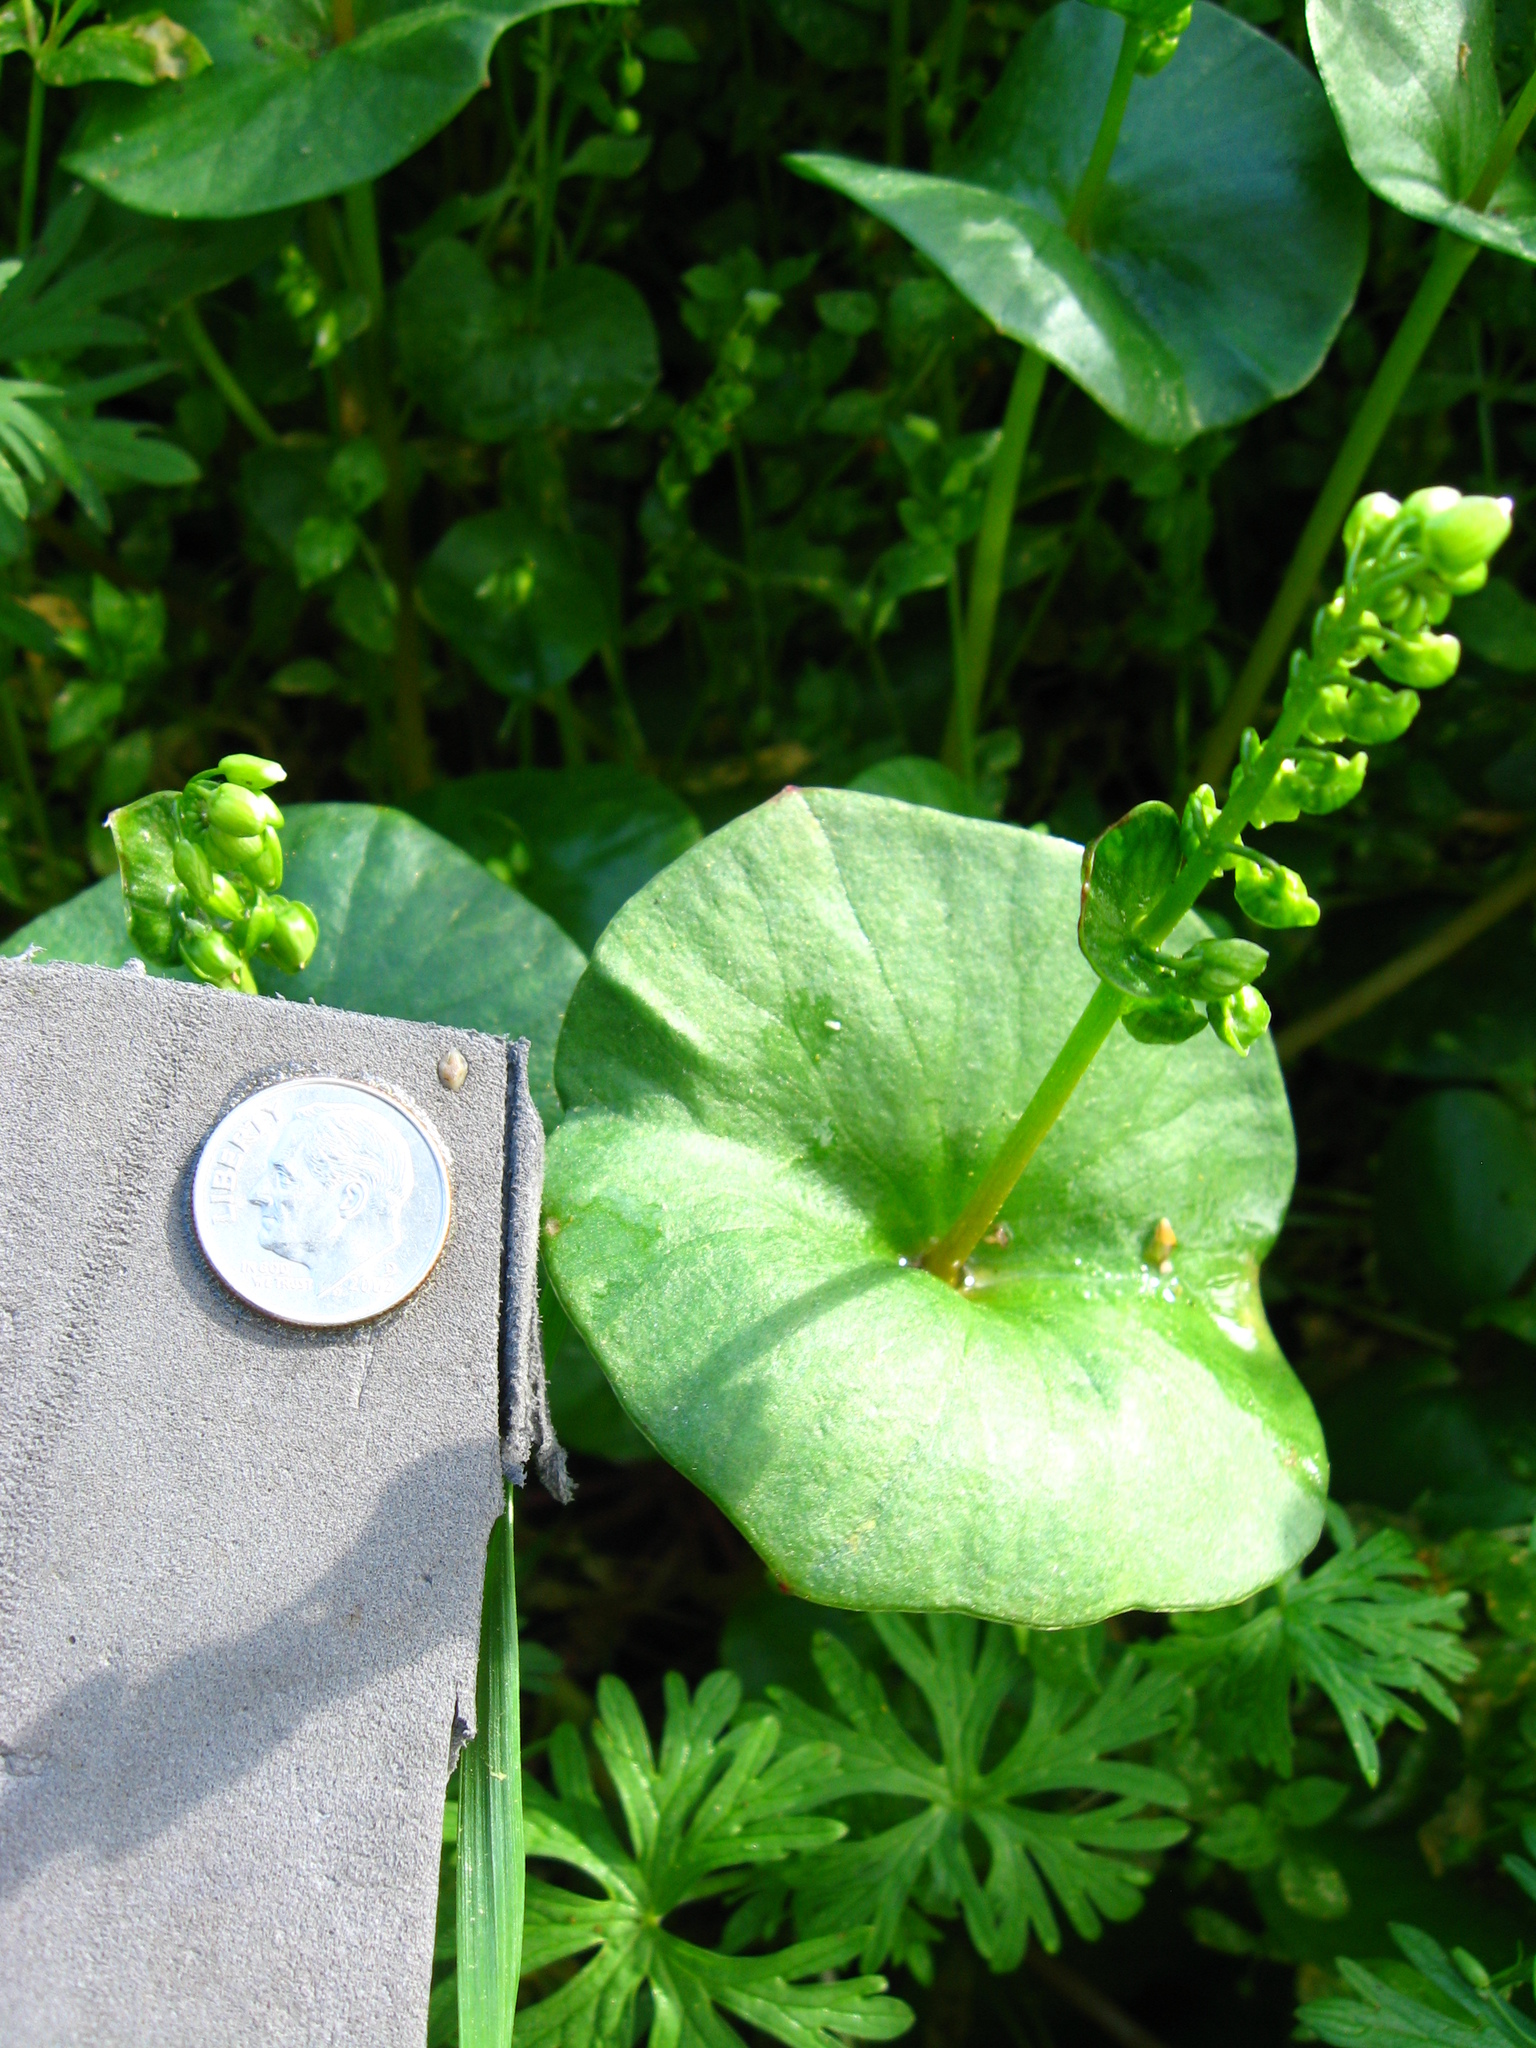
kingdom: Plantae
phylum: Tracheophyta
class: Magnoliopsida
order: Caryophyllales
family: Montiaceae
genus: Claytonia
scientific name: Claytonia perfoliata
